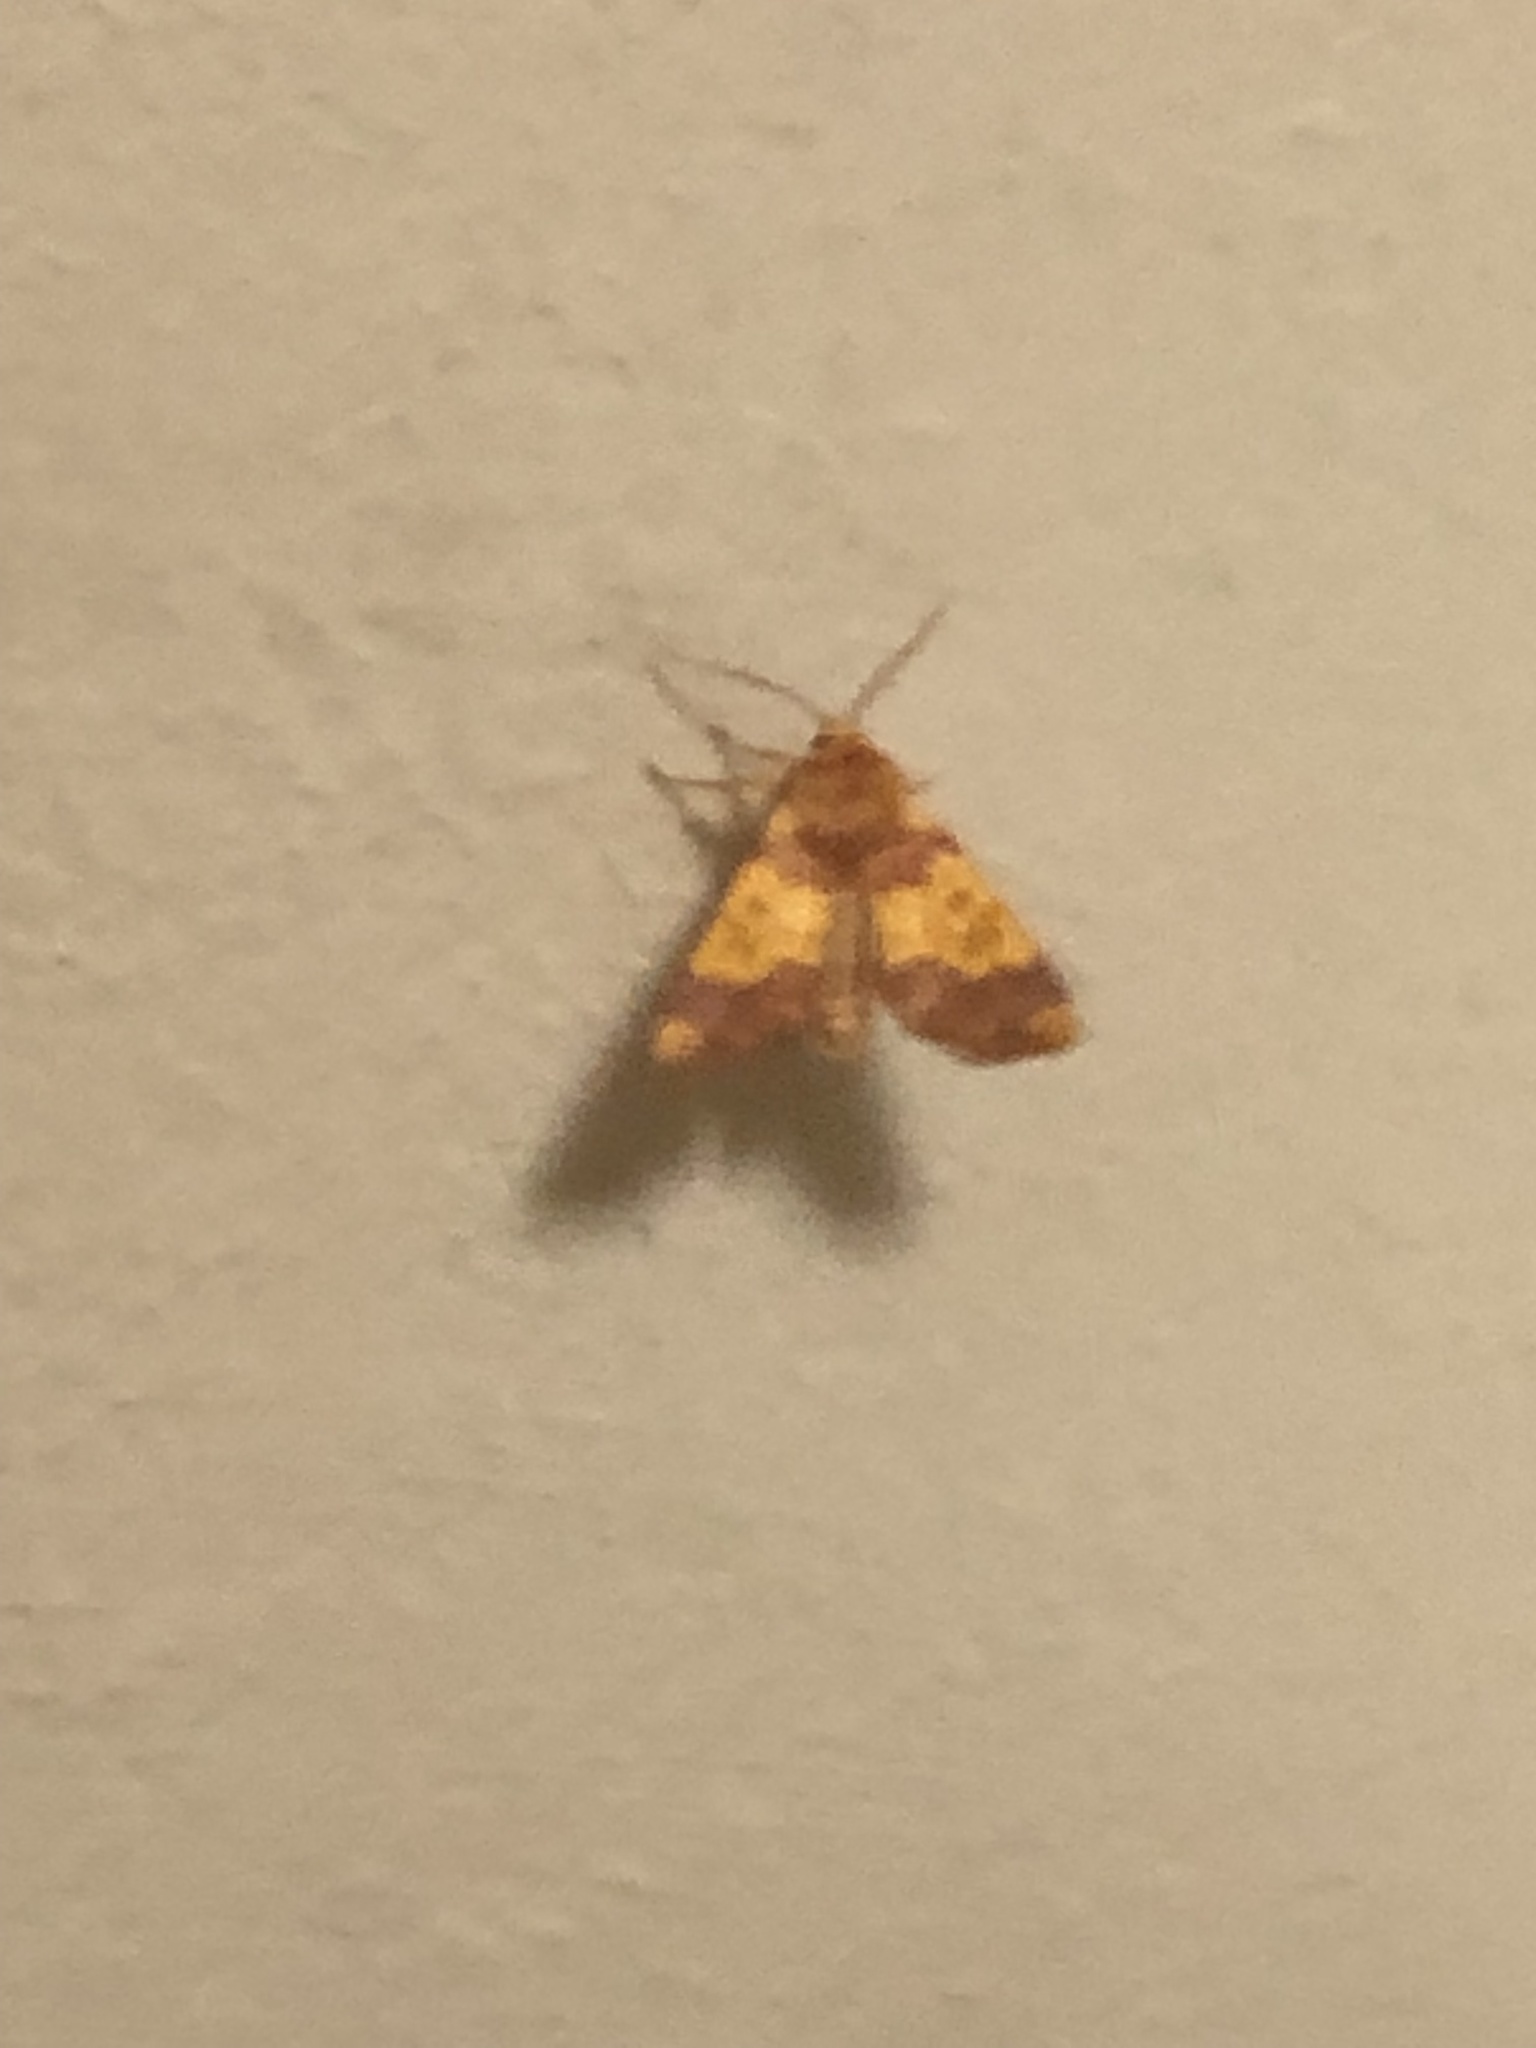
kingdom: Animalia
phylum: Arthropoda
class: Insecta
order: Lepidoptera
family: Noctuidae
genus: Tiliacea
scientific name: Tiliacea aurago
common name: Barred sallow
